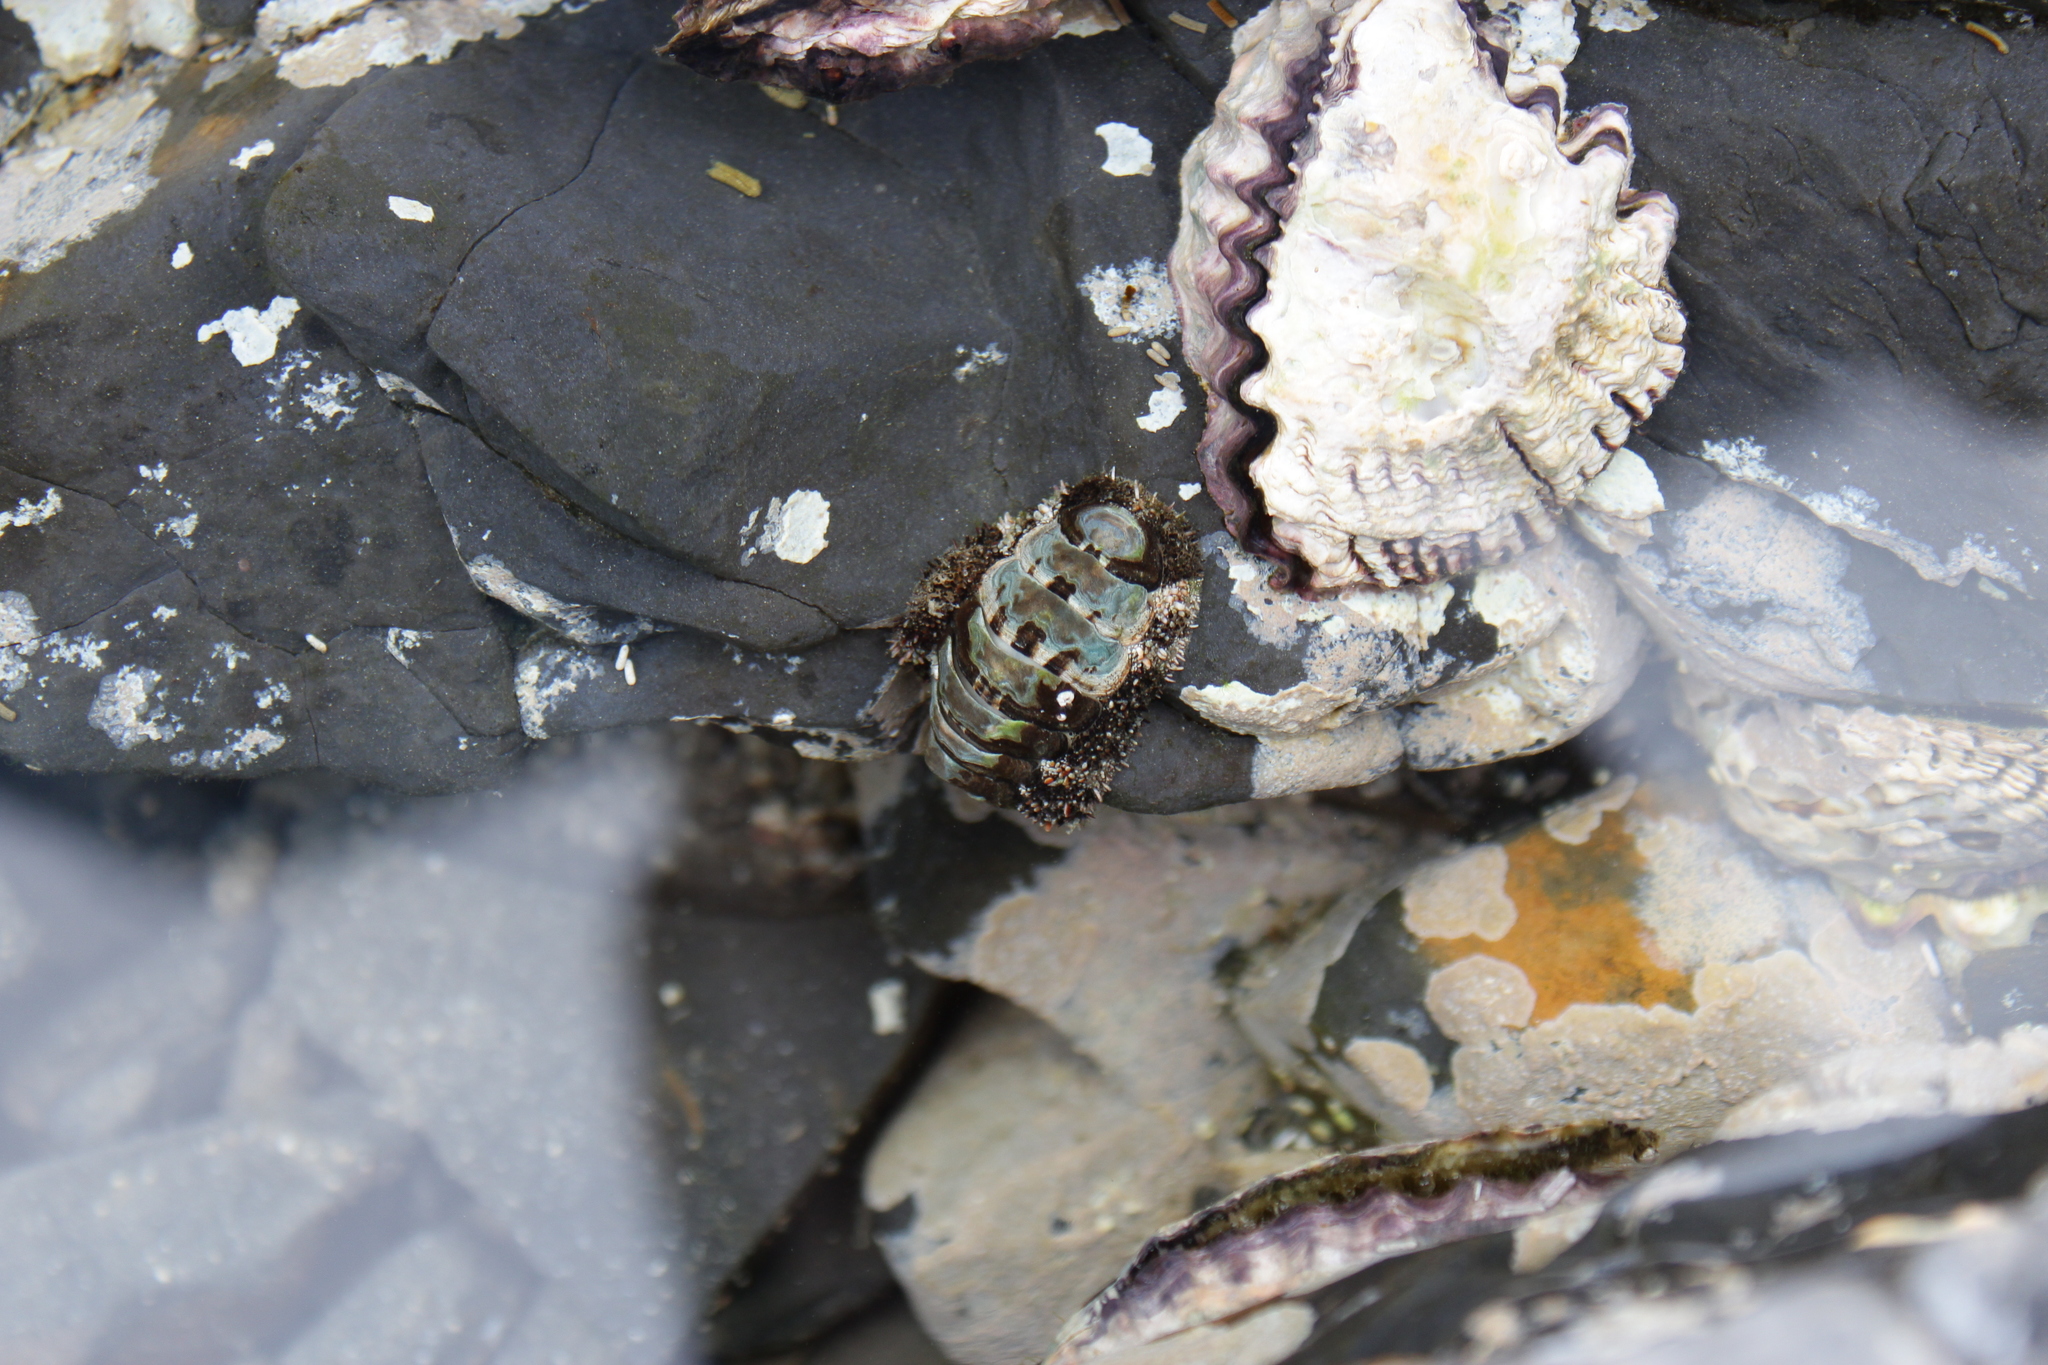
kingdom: Animalia
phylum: Mollusca
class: Polyplacophora
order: Chitonida
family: Chitonidae
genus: Liolophura
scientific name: Liolophura japonica
